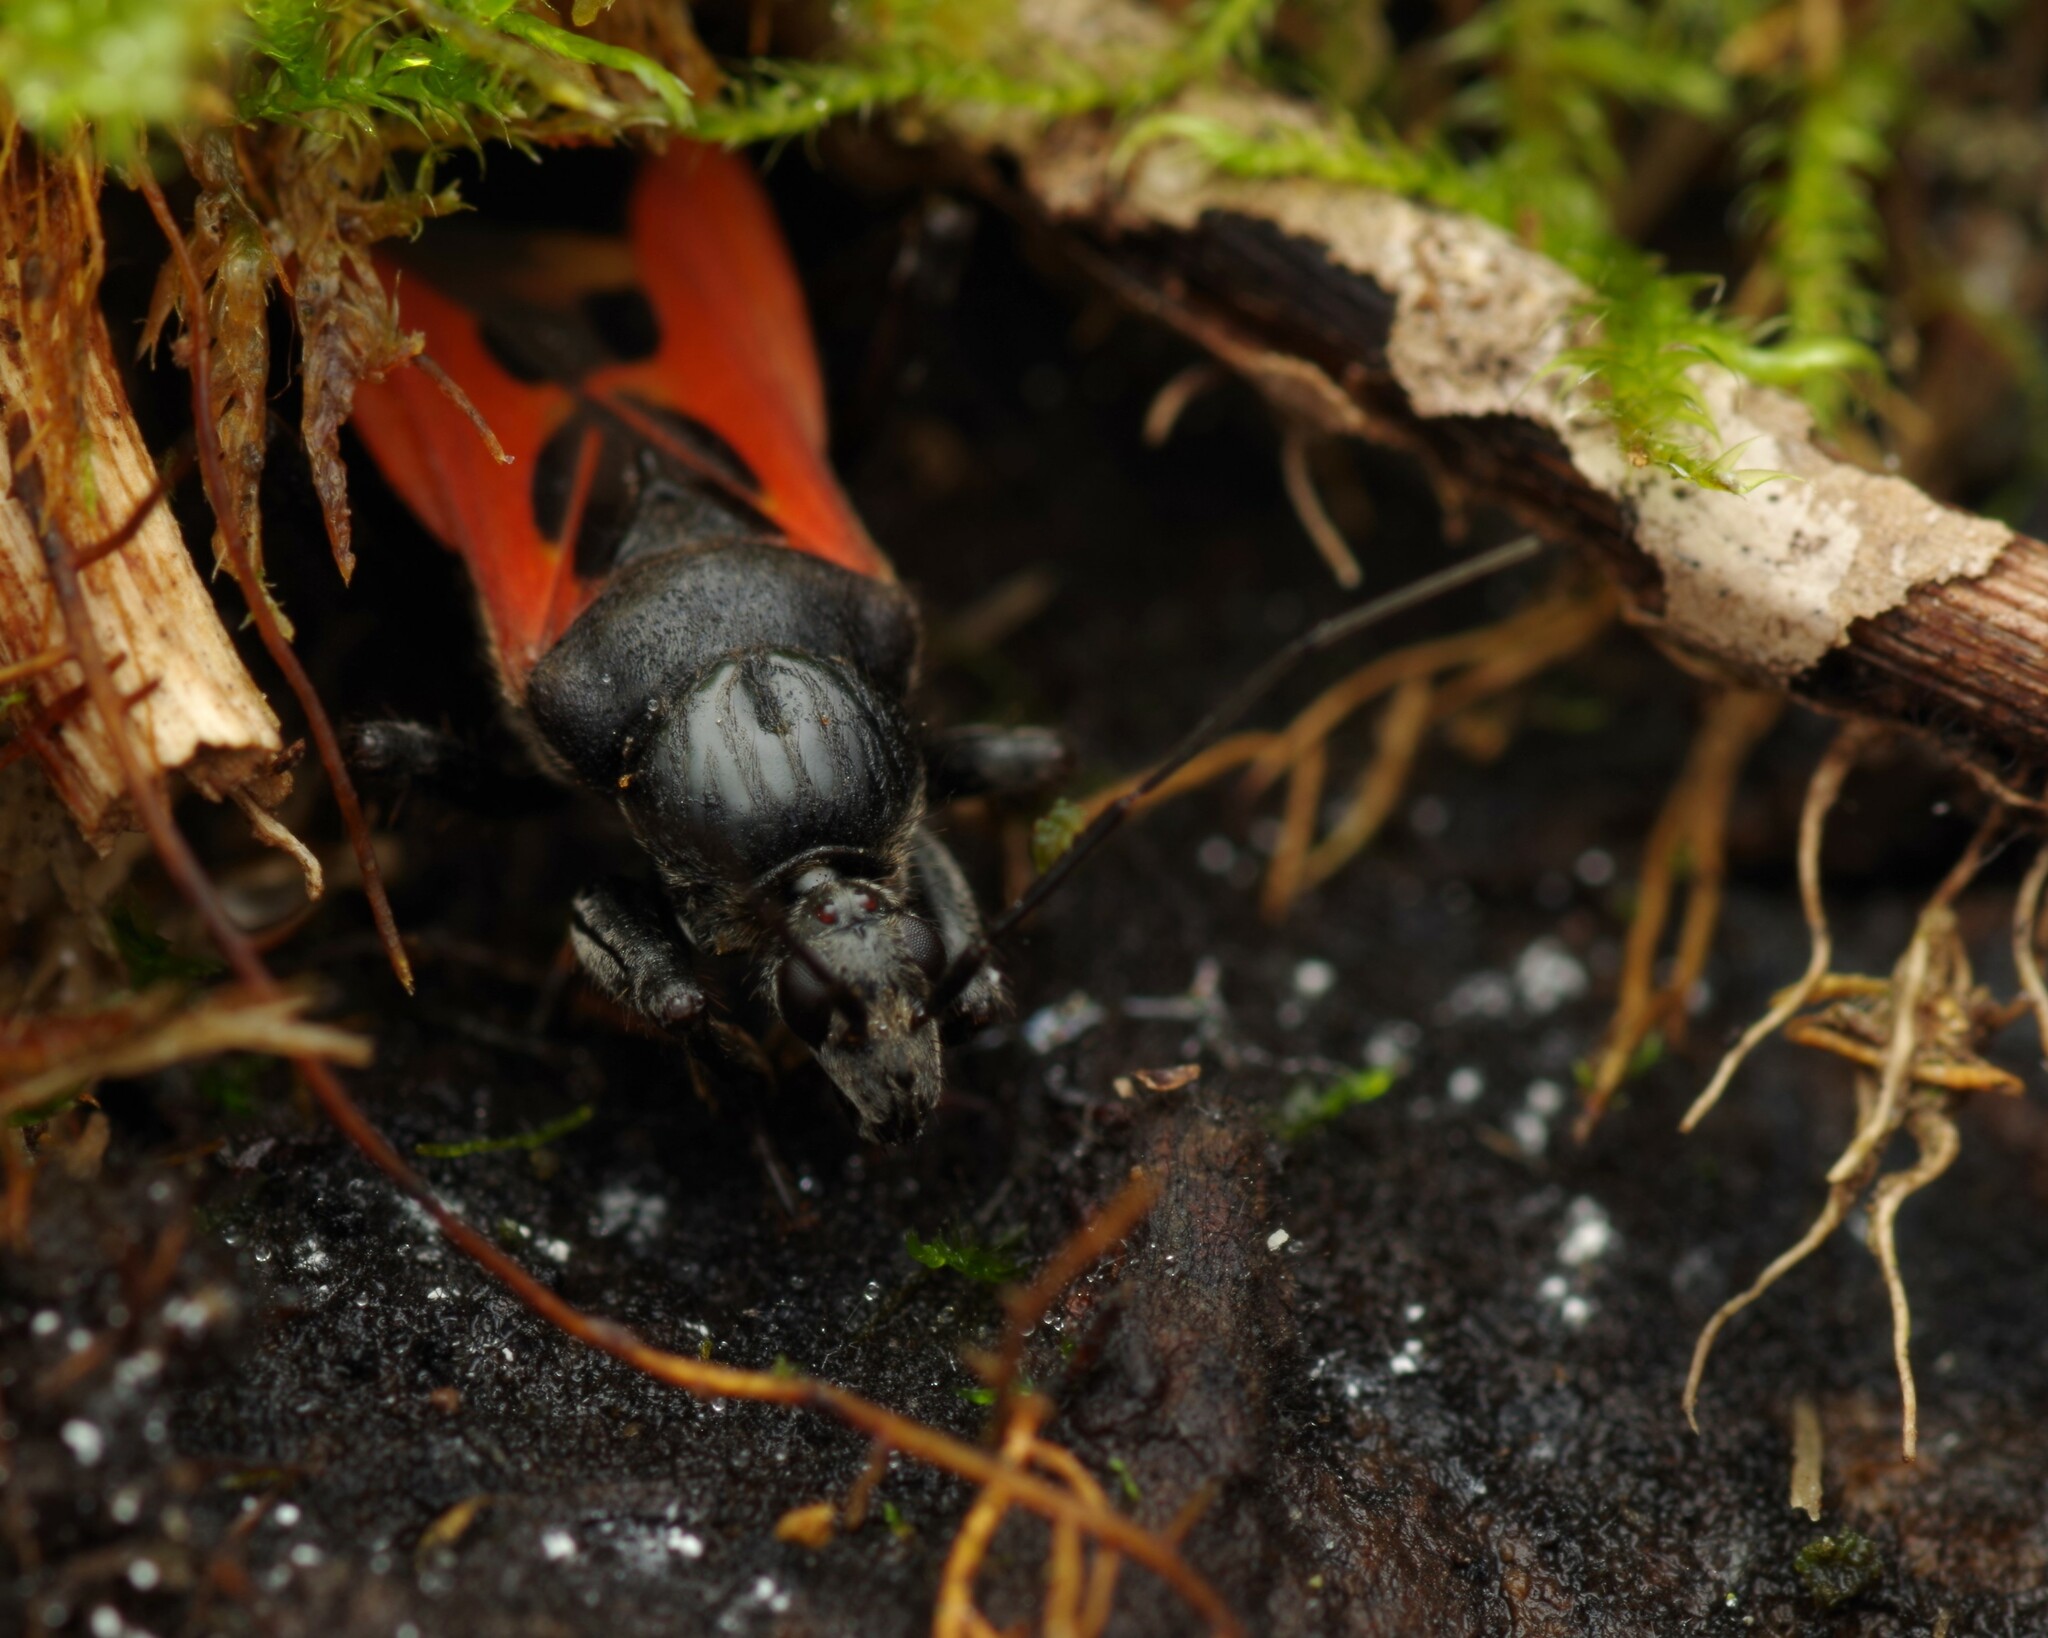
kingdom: Animalia
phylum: Arthropoda
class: Insecta
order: Hemiptera
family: Reduviidae
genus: Peirates
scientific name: Peirates hybridus
